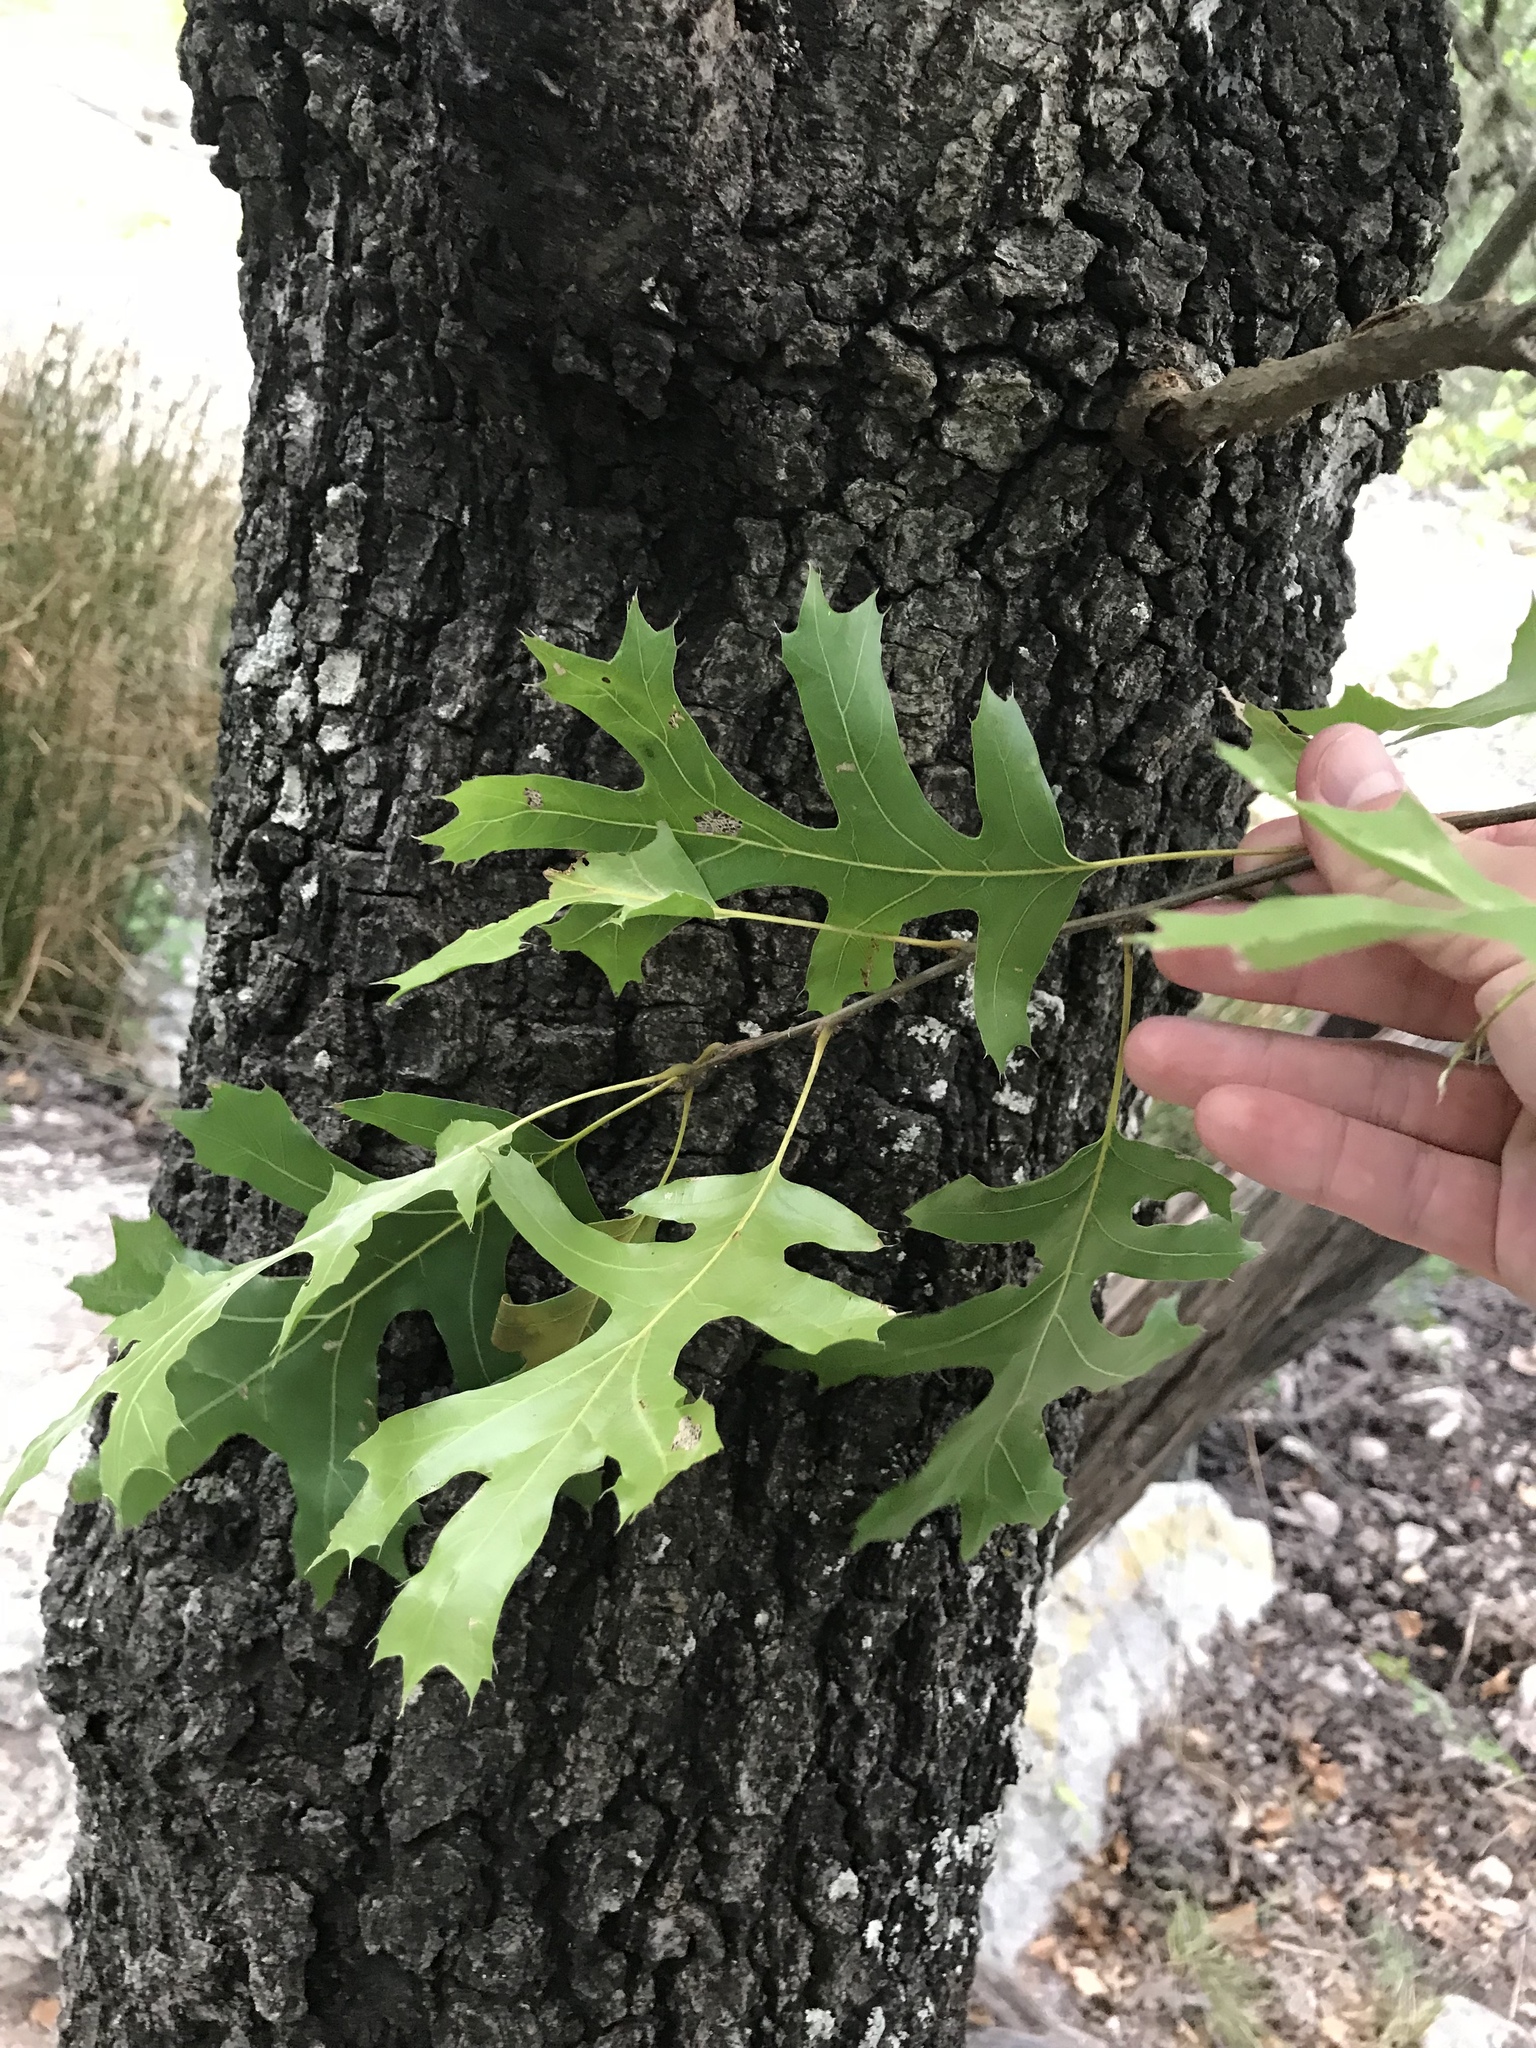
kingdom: Plantae
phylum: Tracheophyta
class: Magnoliopsida
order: Fagales
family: Fagaceae
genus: Quercus
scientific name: Quercus buckleyi
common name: Buckley oak
